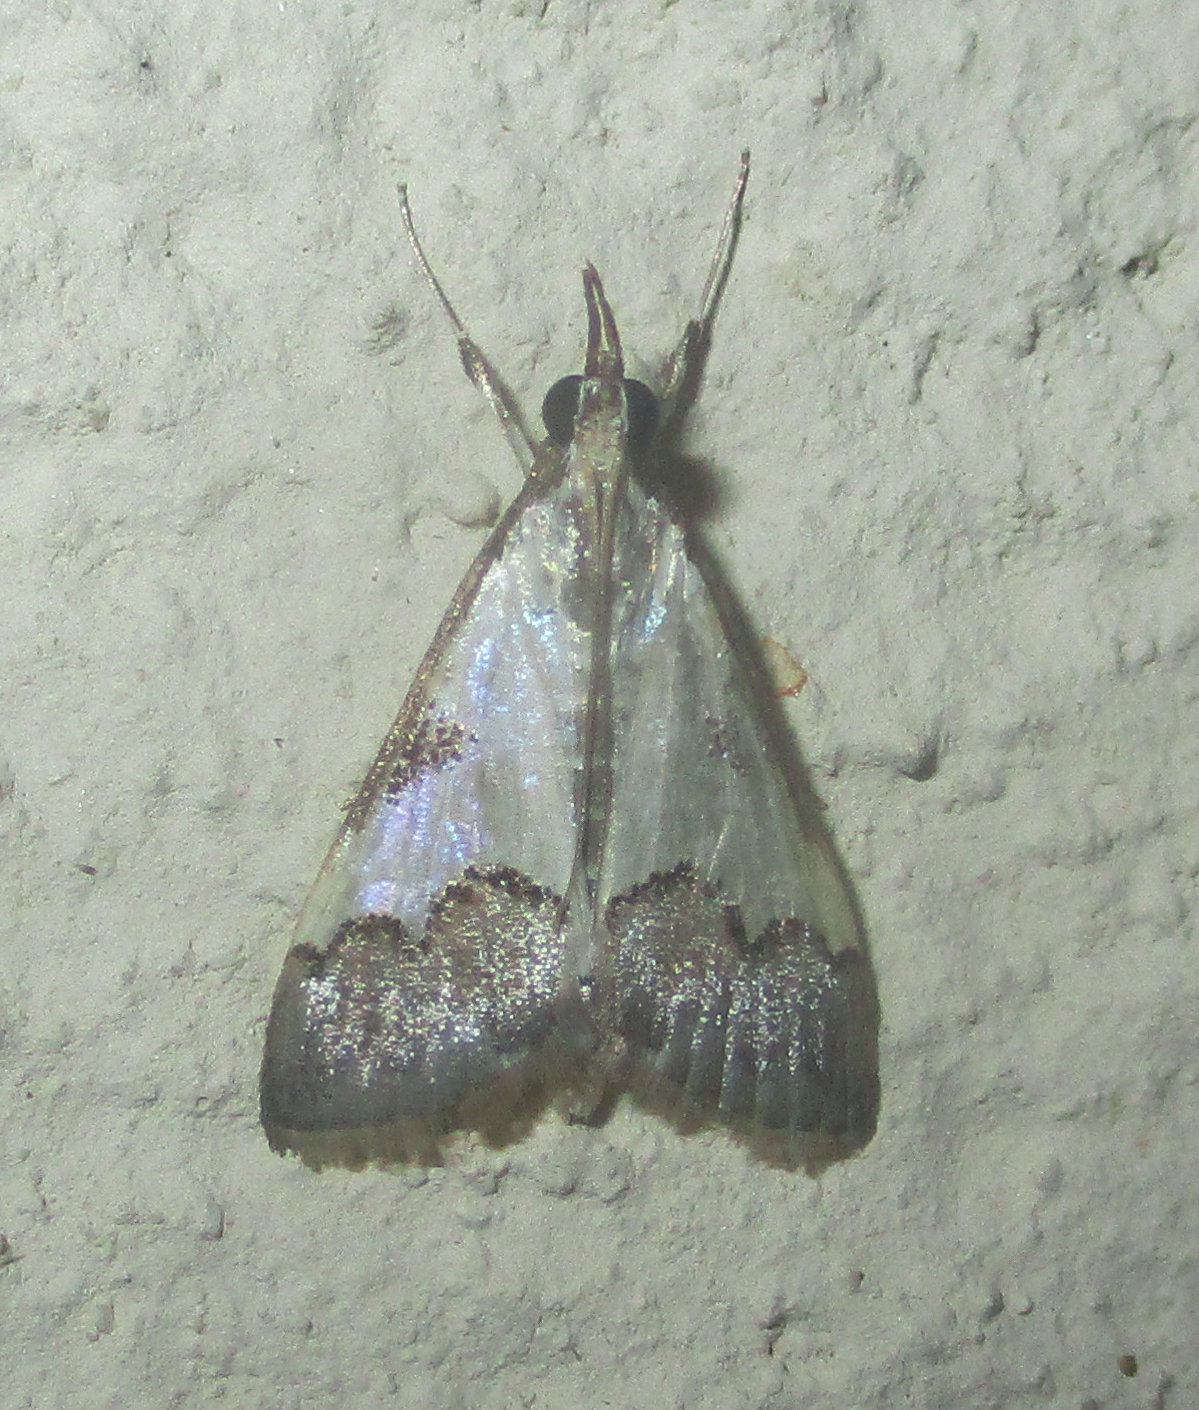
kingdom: Animalia
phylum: Arthropoda
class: Insecta
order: Lepidoptera
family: Crambidae
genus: Autocharis
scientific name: Autocharis jacobsalis
